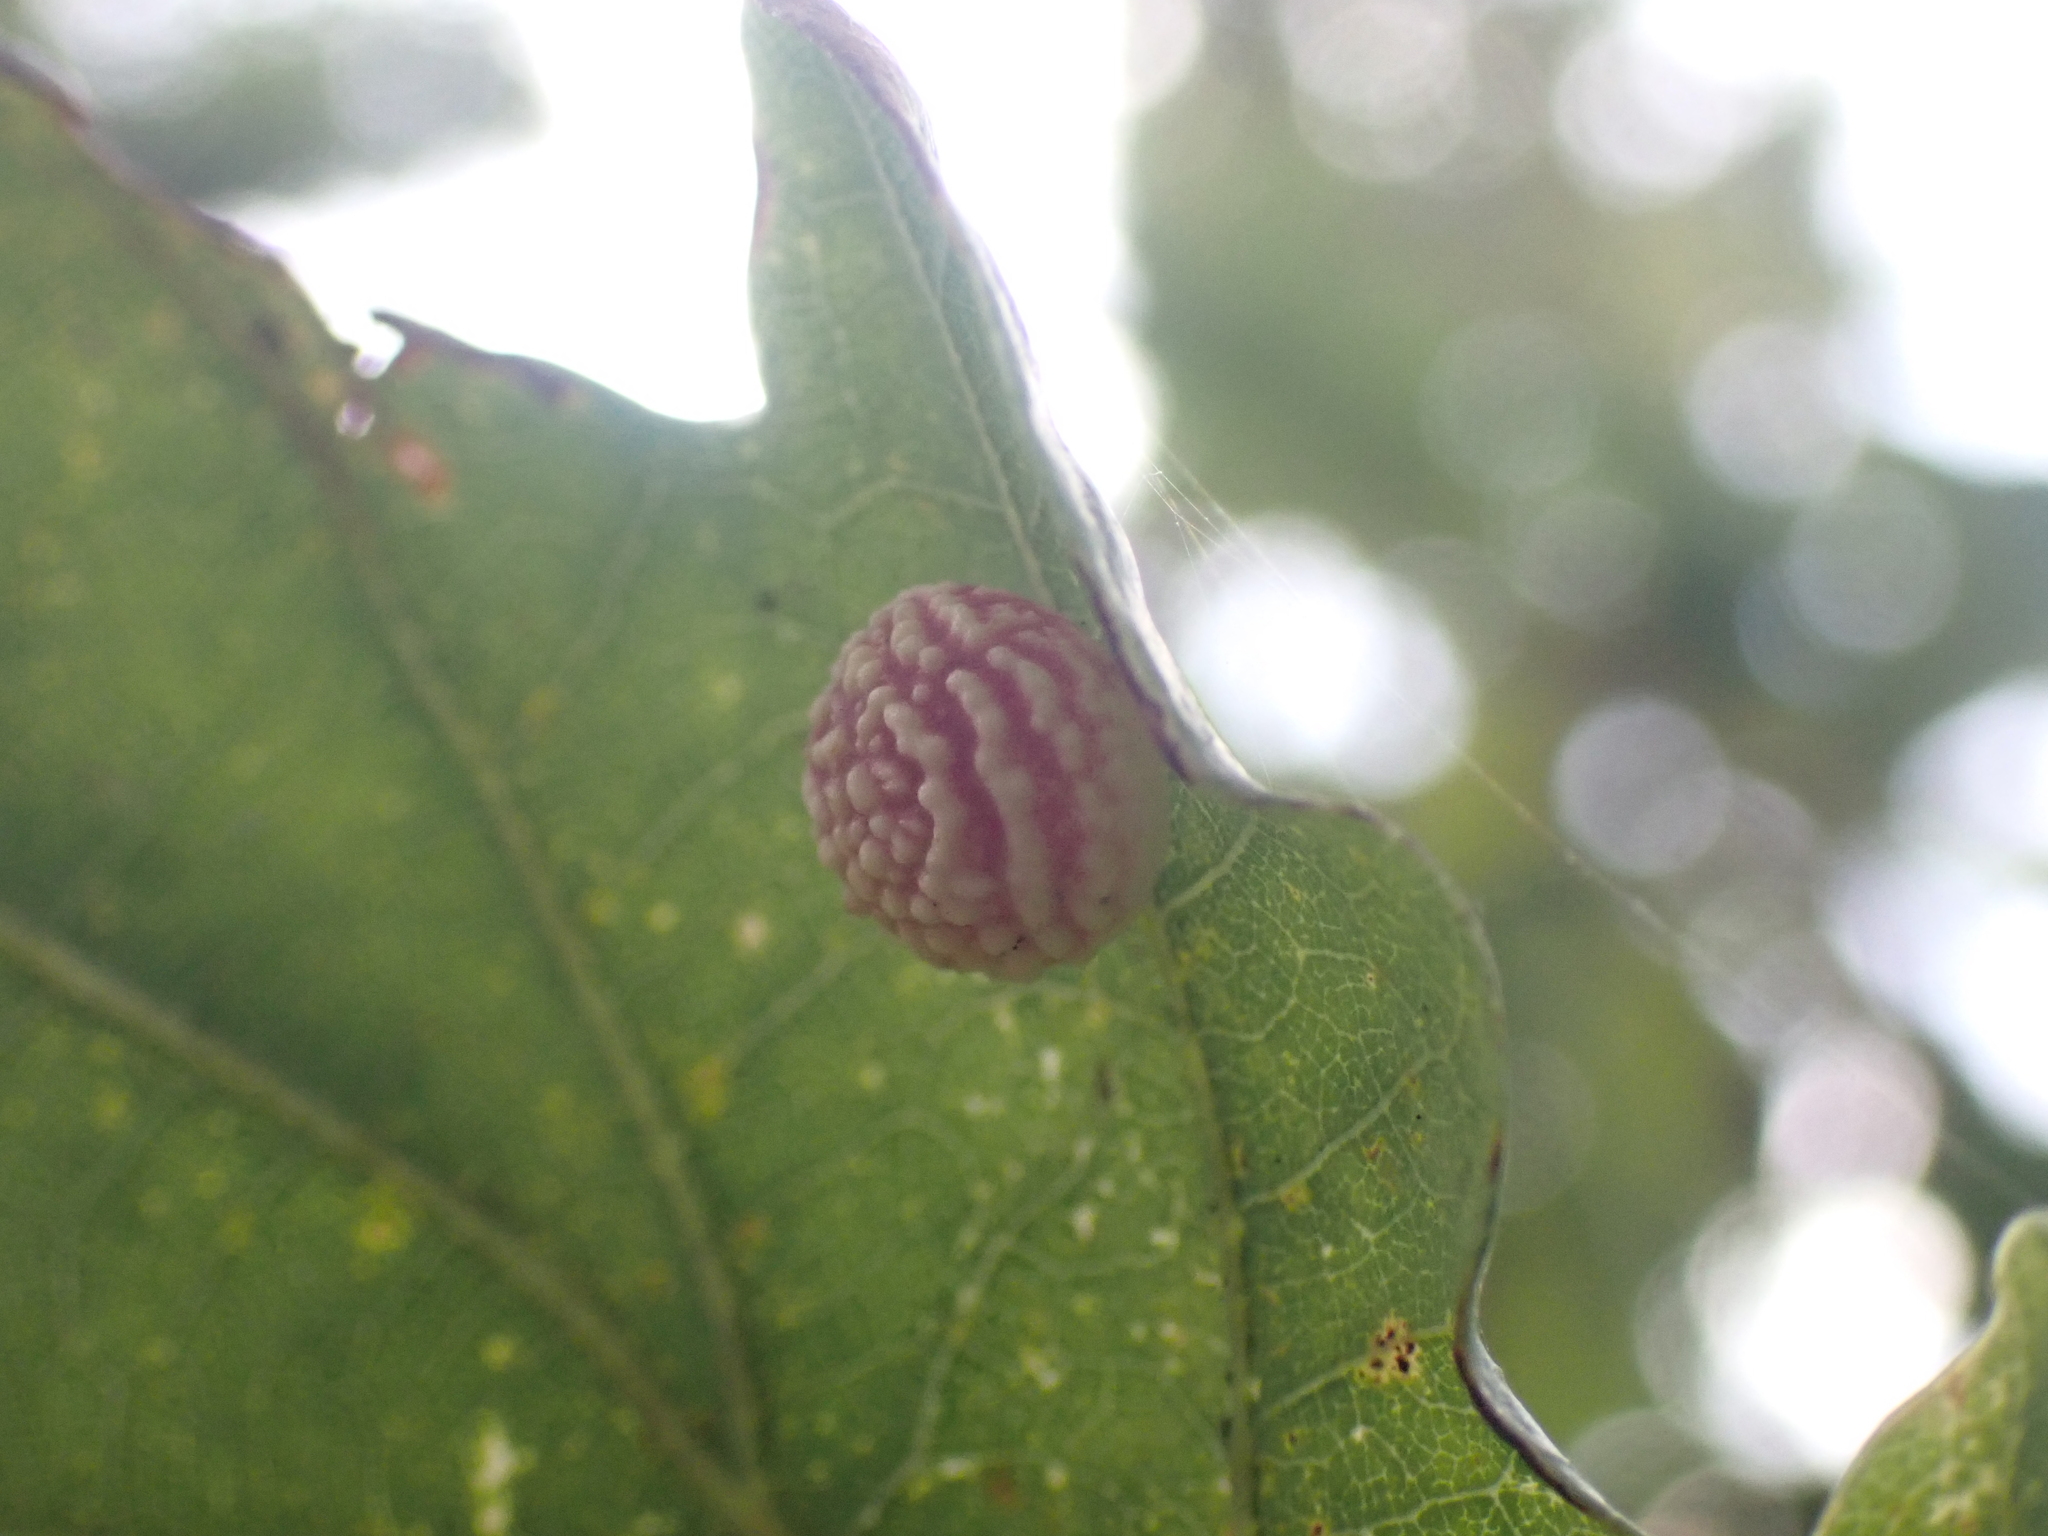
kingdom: Animalia
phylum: Arthropoda
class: Insecta
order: Hymenoptera
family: Cynipidae
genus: Cynips
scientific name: Cynips longiventris
